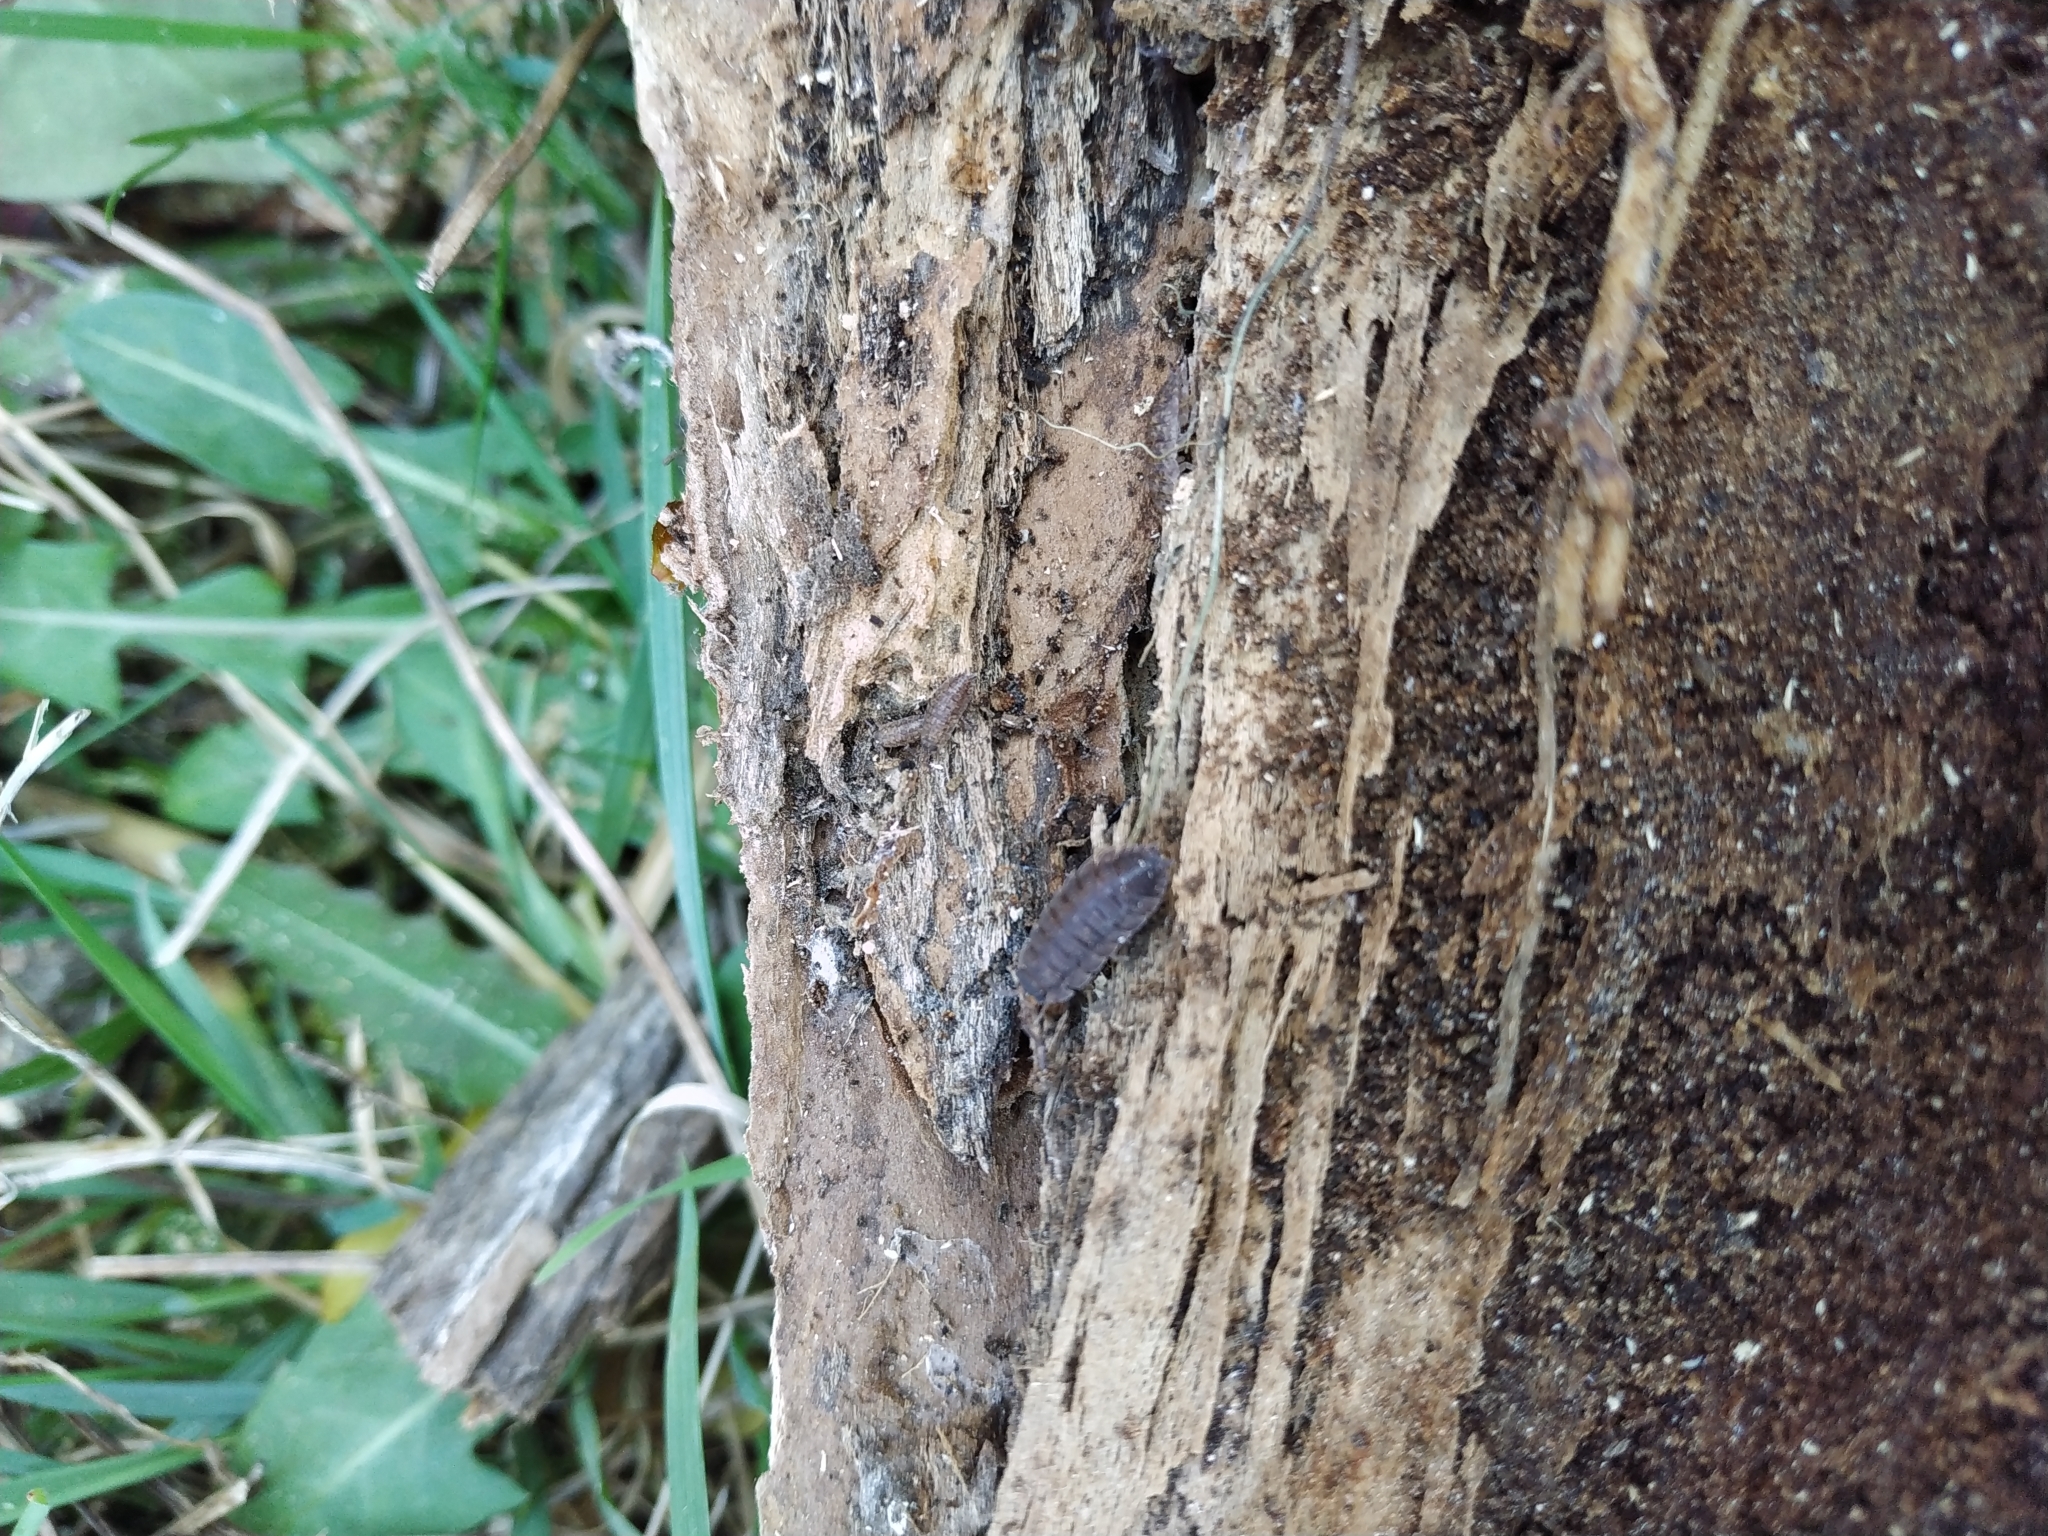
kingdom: Animalia
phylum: Arthropoda
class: Malacostraca
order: Isopoda
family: Porcellionidae
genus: Porcellio
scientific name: Porcellio scaber
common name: Common rough woodlouse
